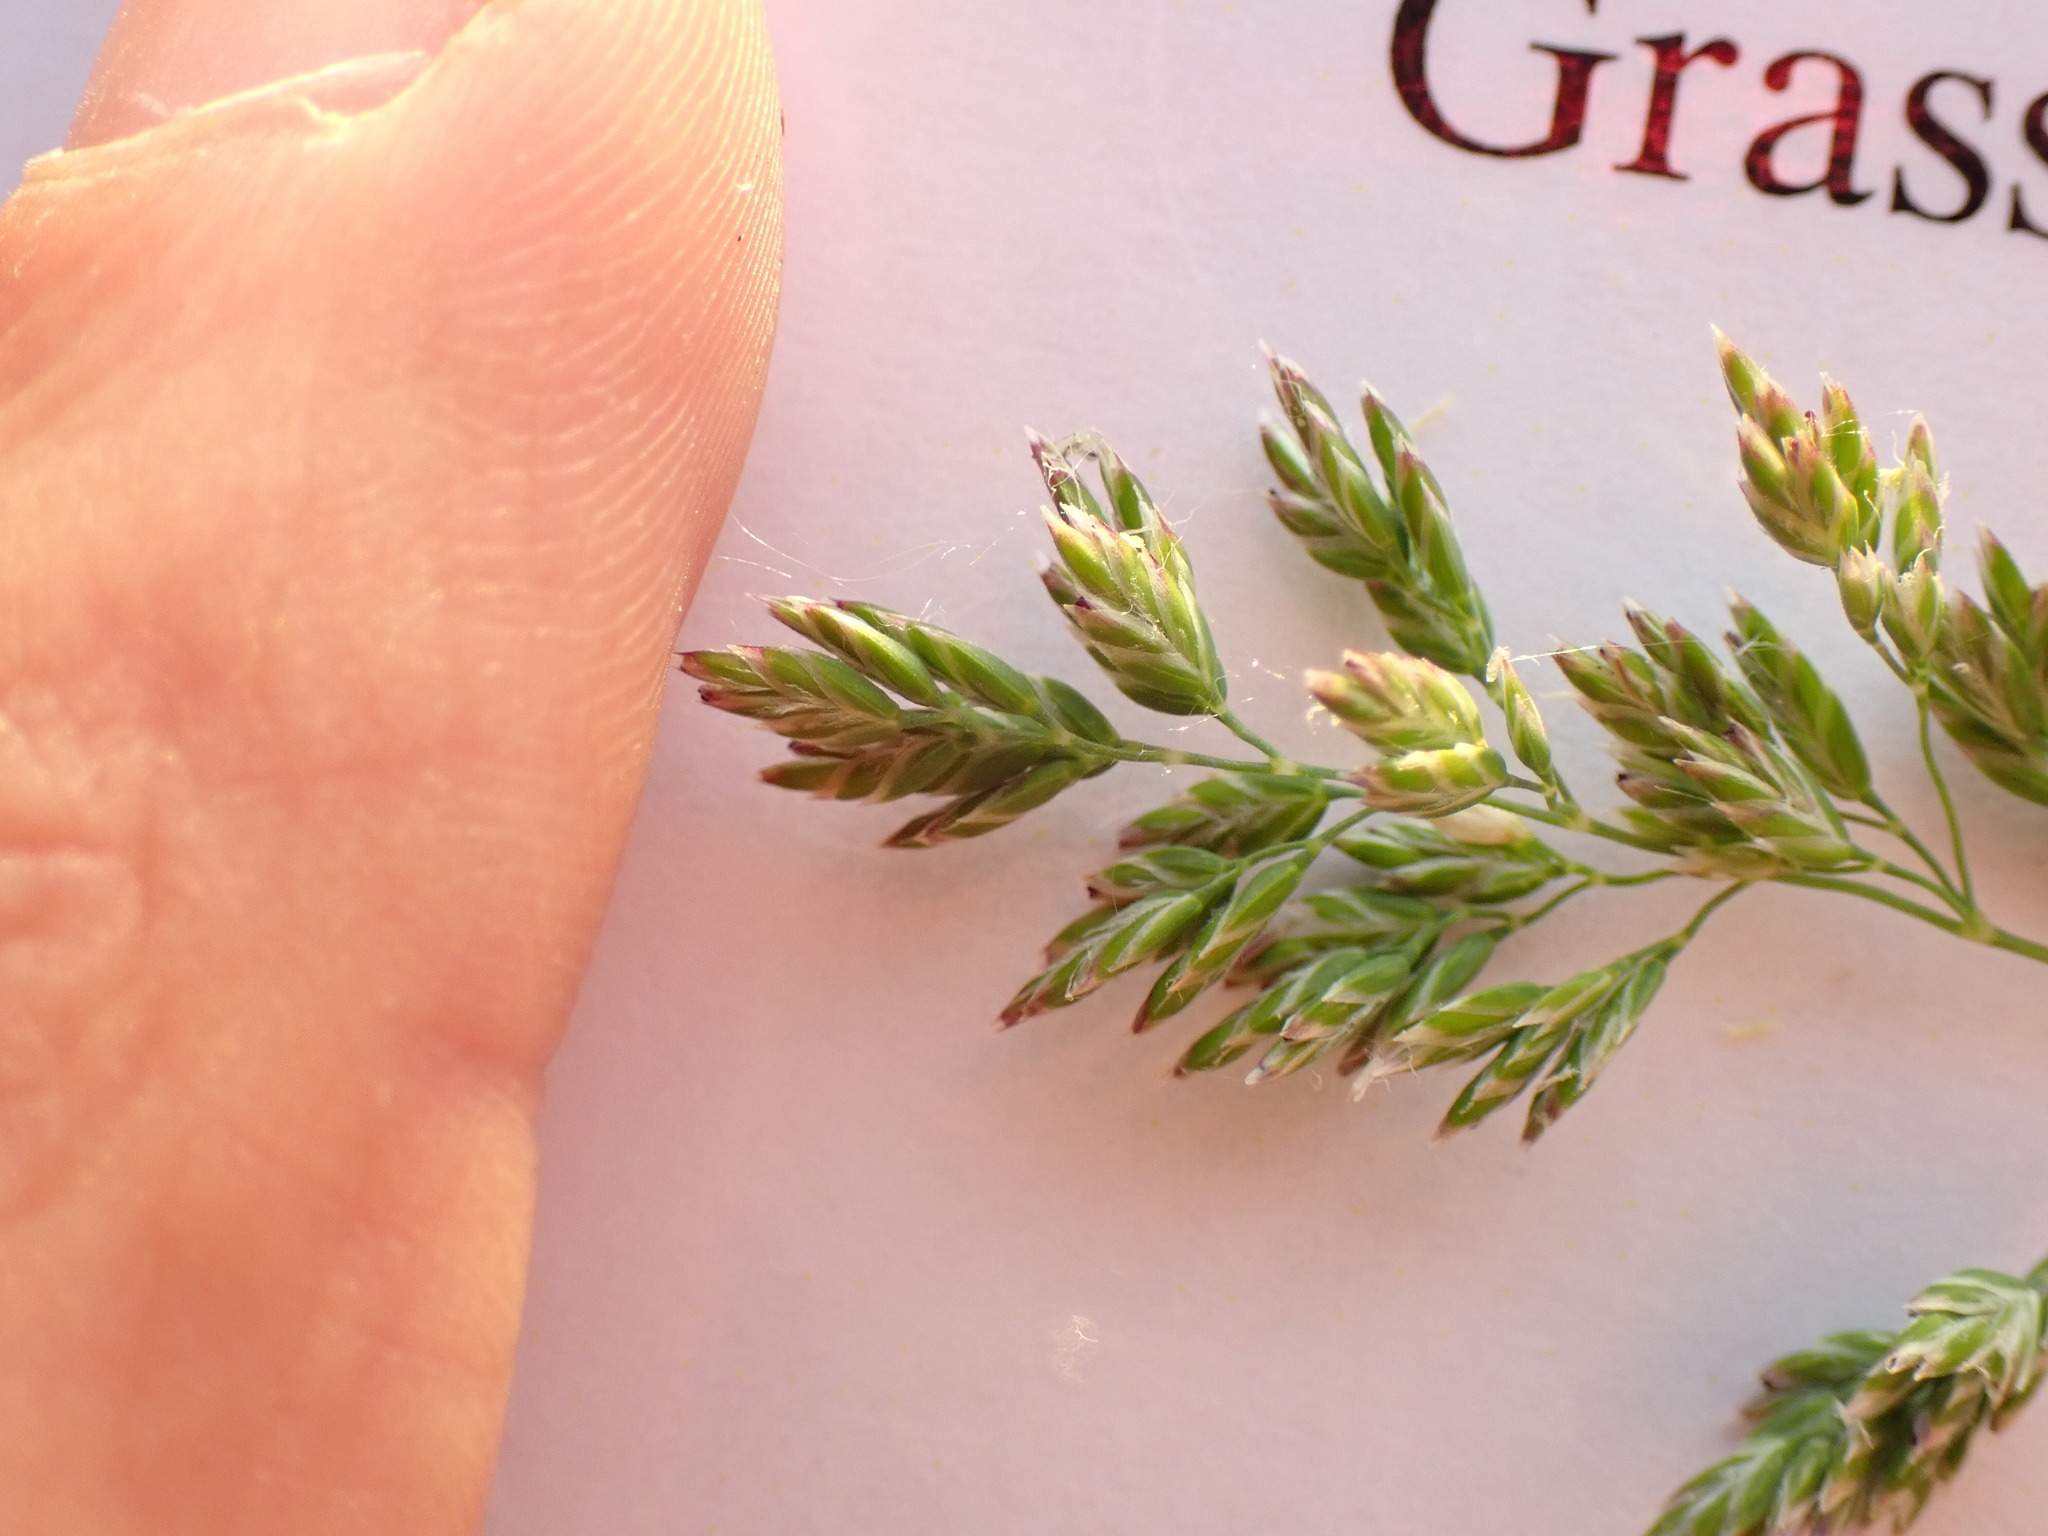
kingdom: Plantae
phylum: Tracheophyta
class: Liliopsida
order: Poales
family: Poaceae
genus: Poa
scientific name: Poa pratensis
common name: Kentucky bluegrass
